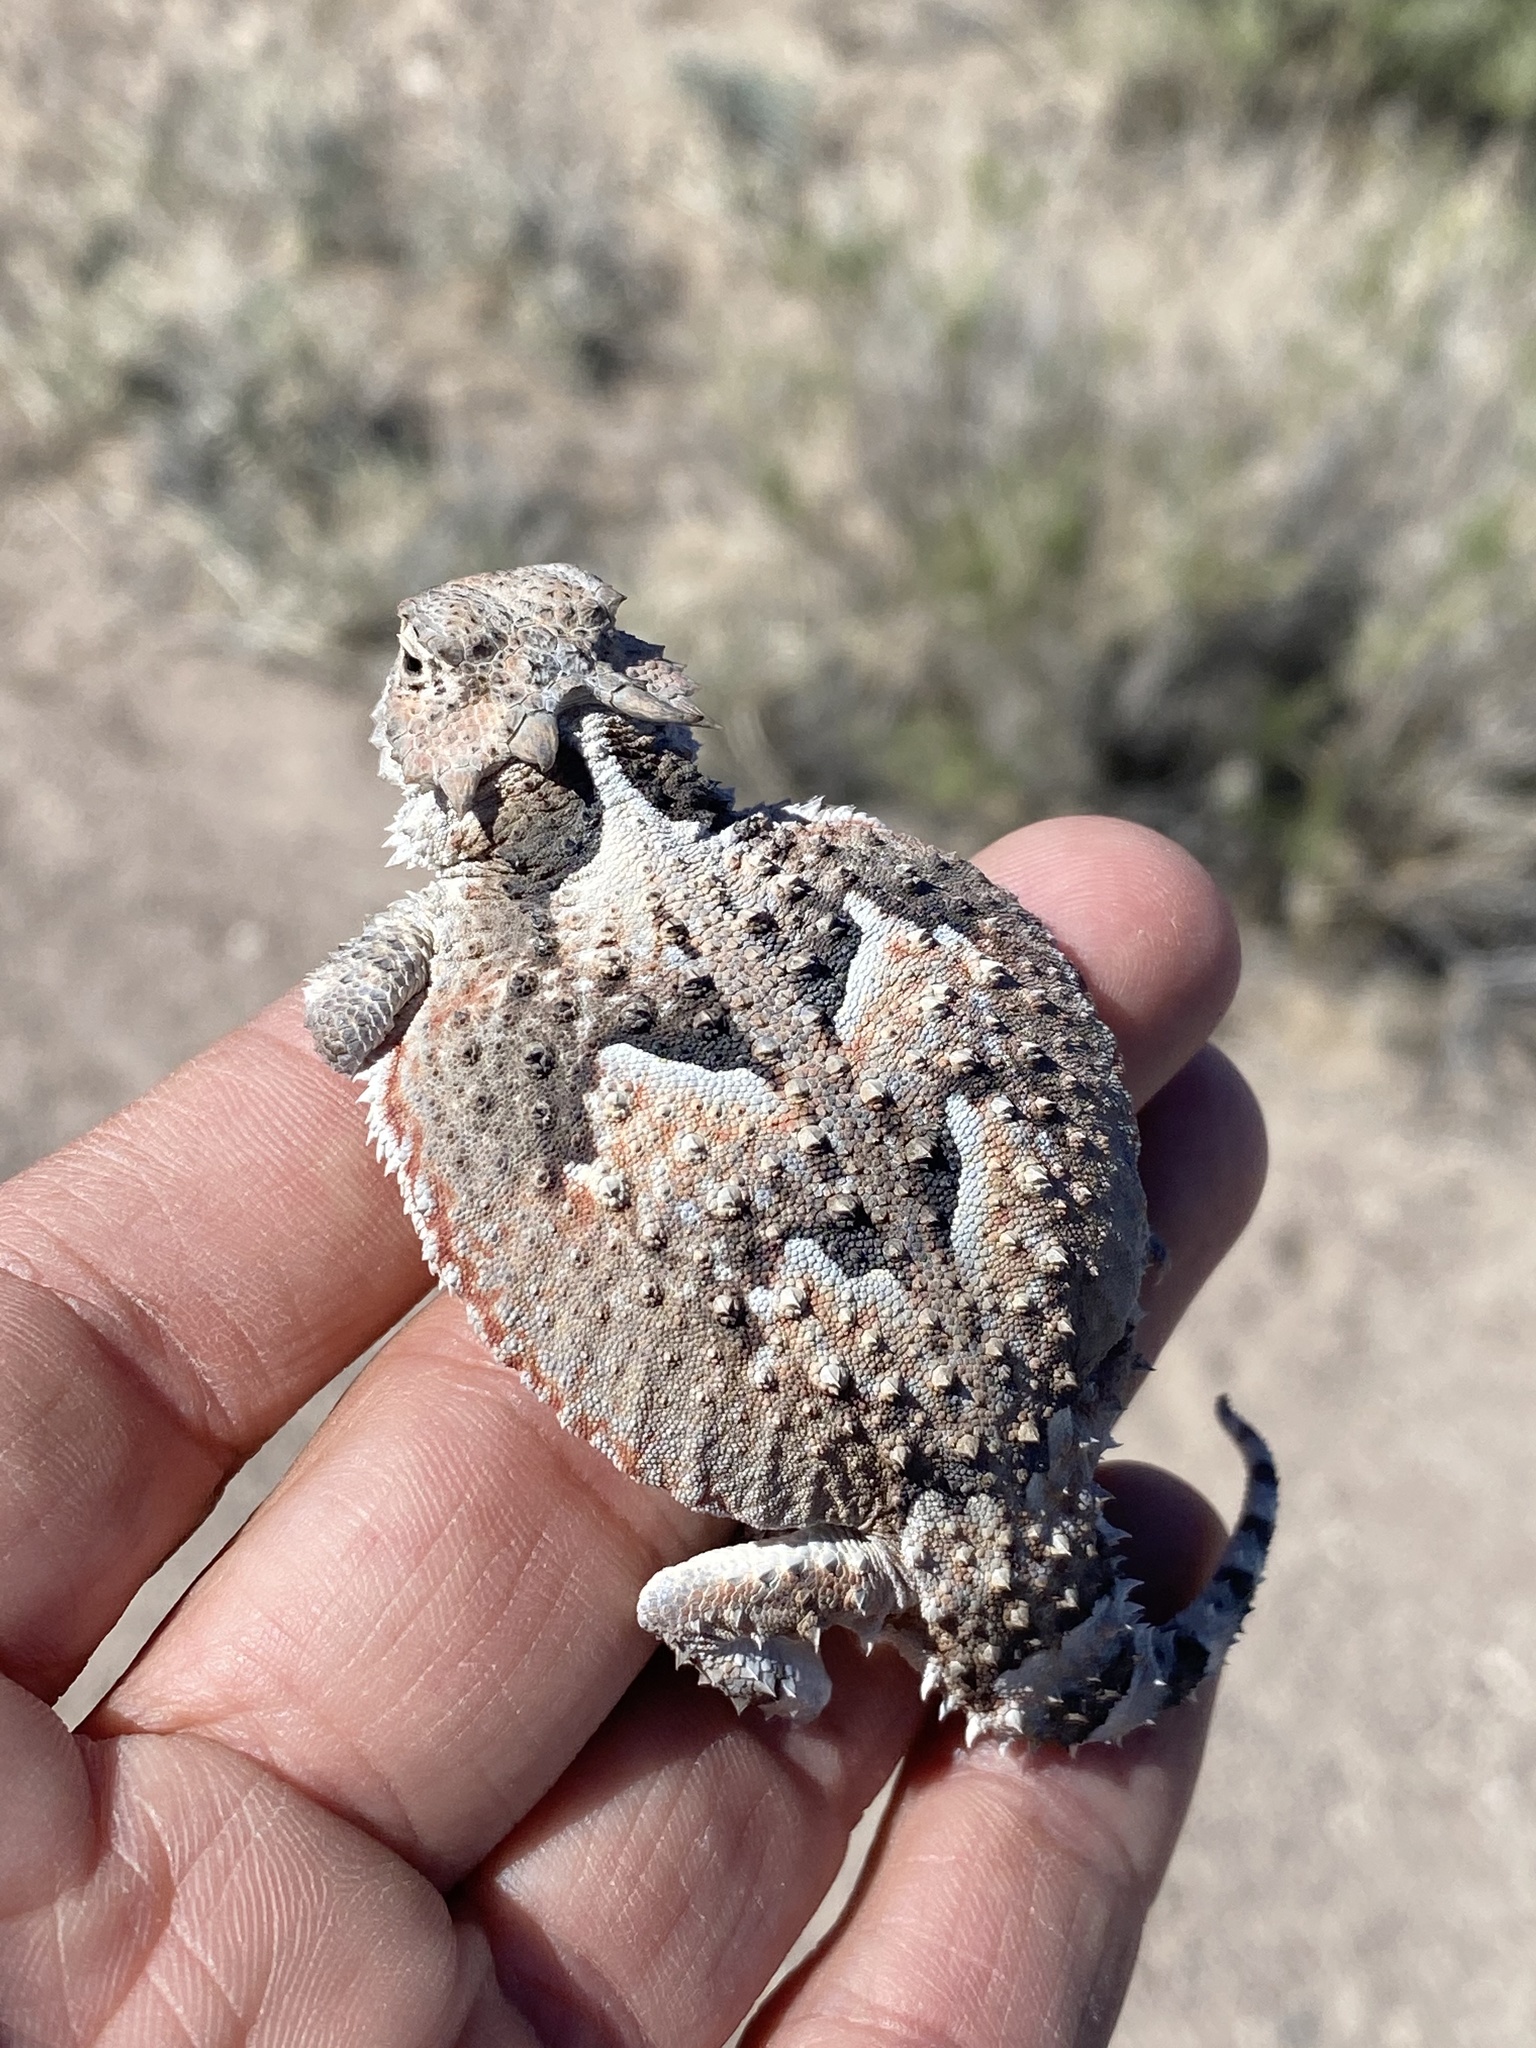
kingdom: Animalia
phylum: Chordata
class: Squamata
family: Phrynosomatidae
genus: Phrynosoma
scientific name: Phrynosoma platyrhinos
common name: Desert horned lizard
